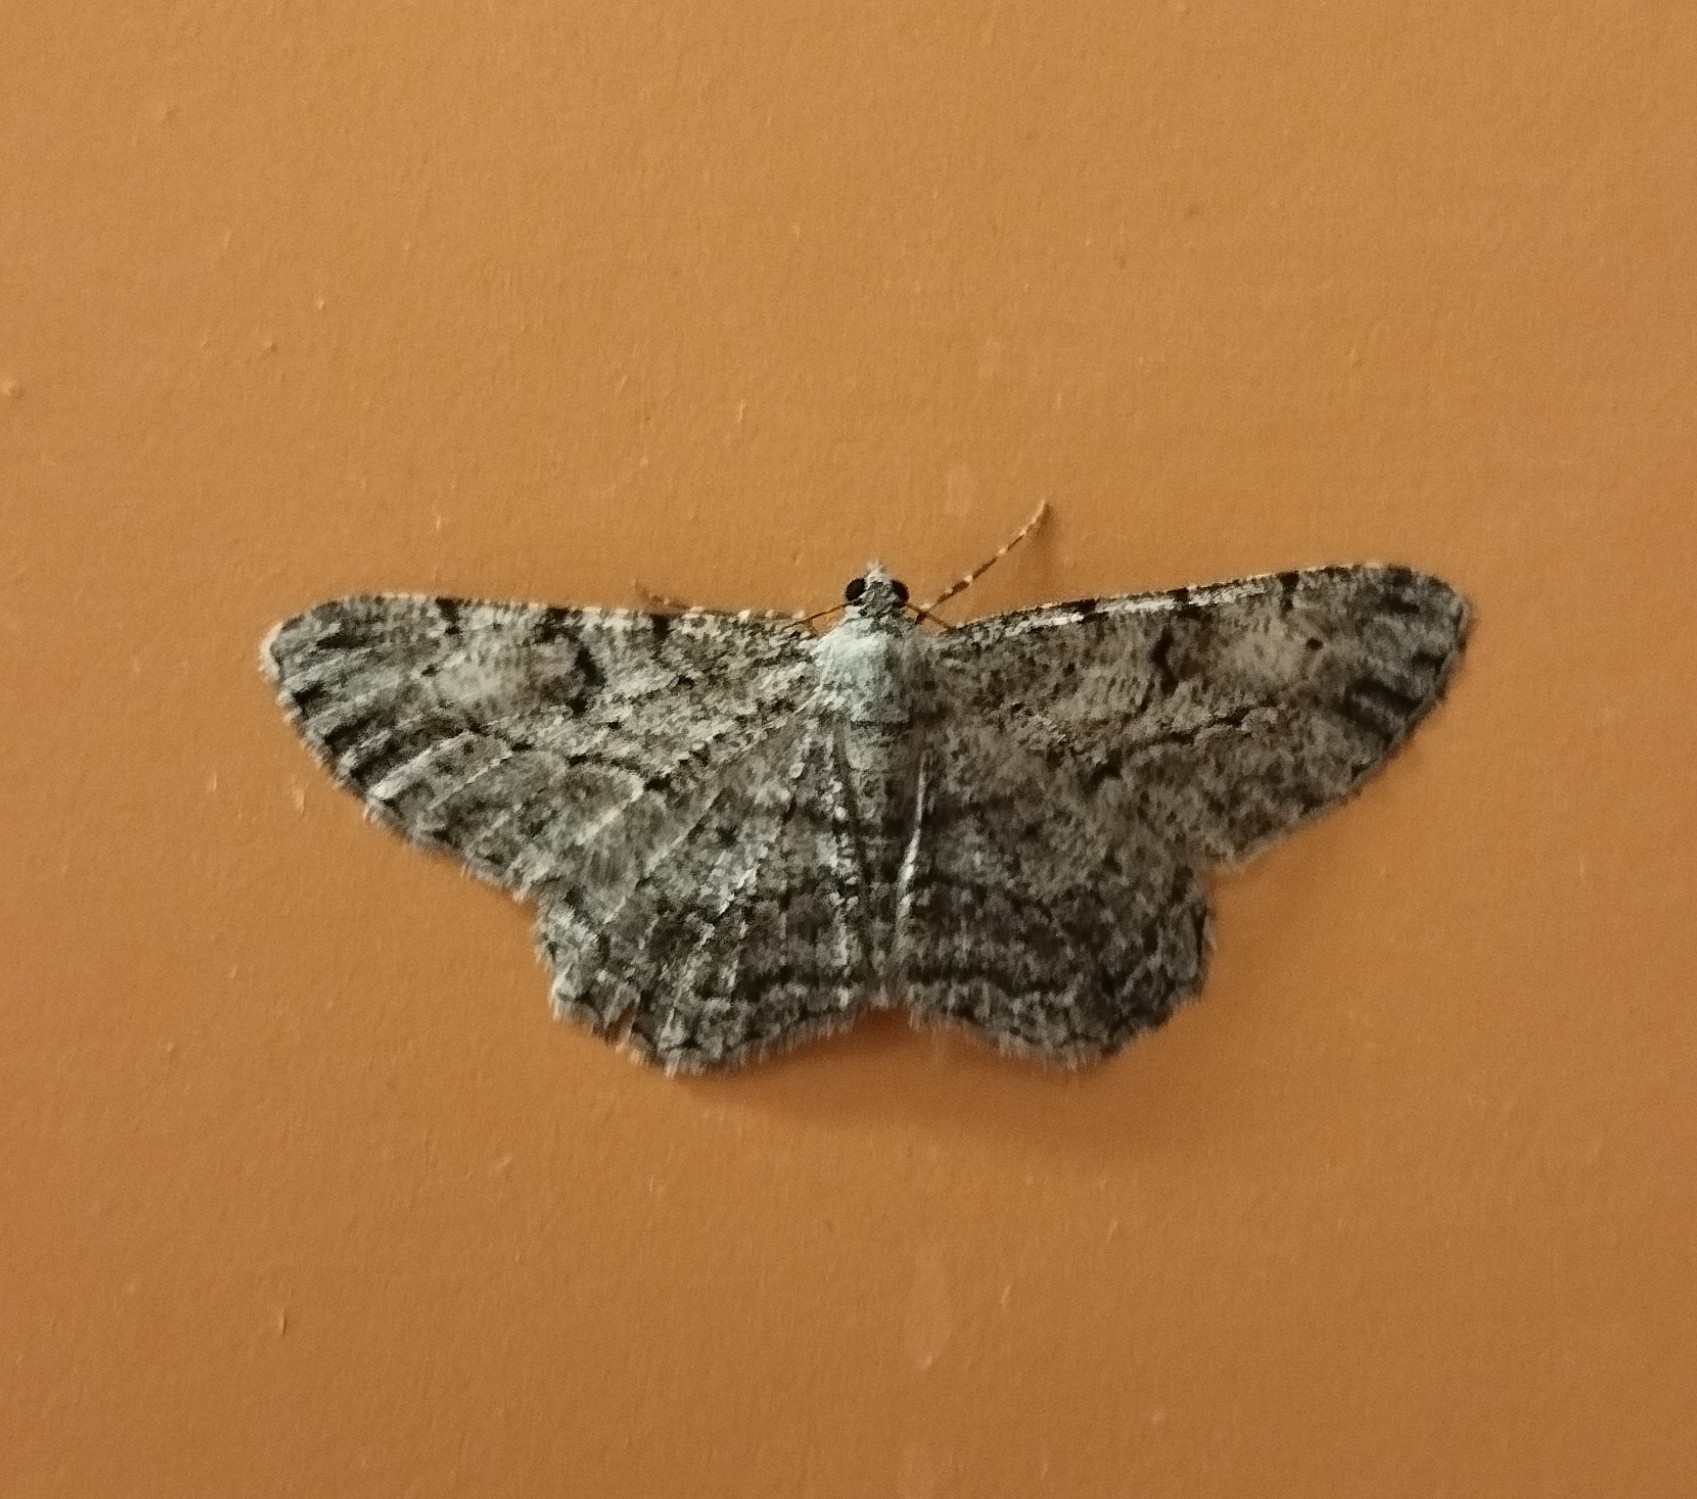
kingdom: Animalia
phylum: Arthropoda
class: Insecta
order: Lepidoptera
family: Geometridae
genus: Peribatodes
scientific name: Peribatodes rhomboidaria
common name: Willow beauty
